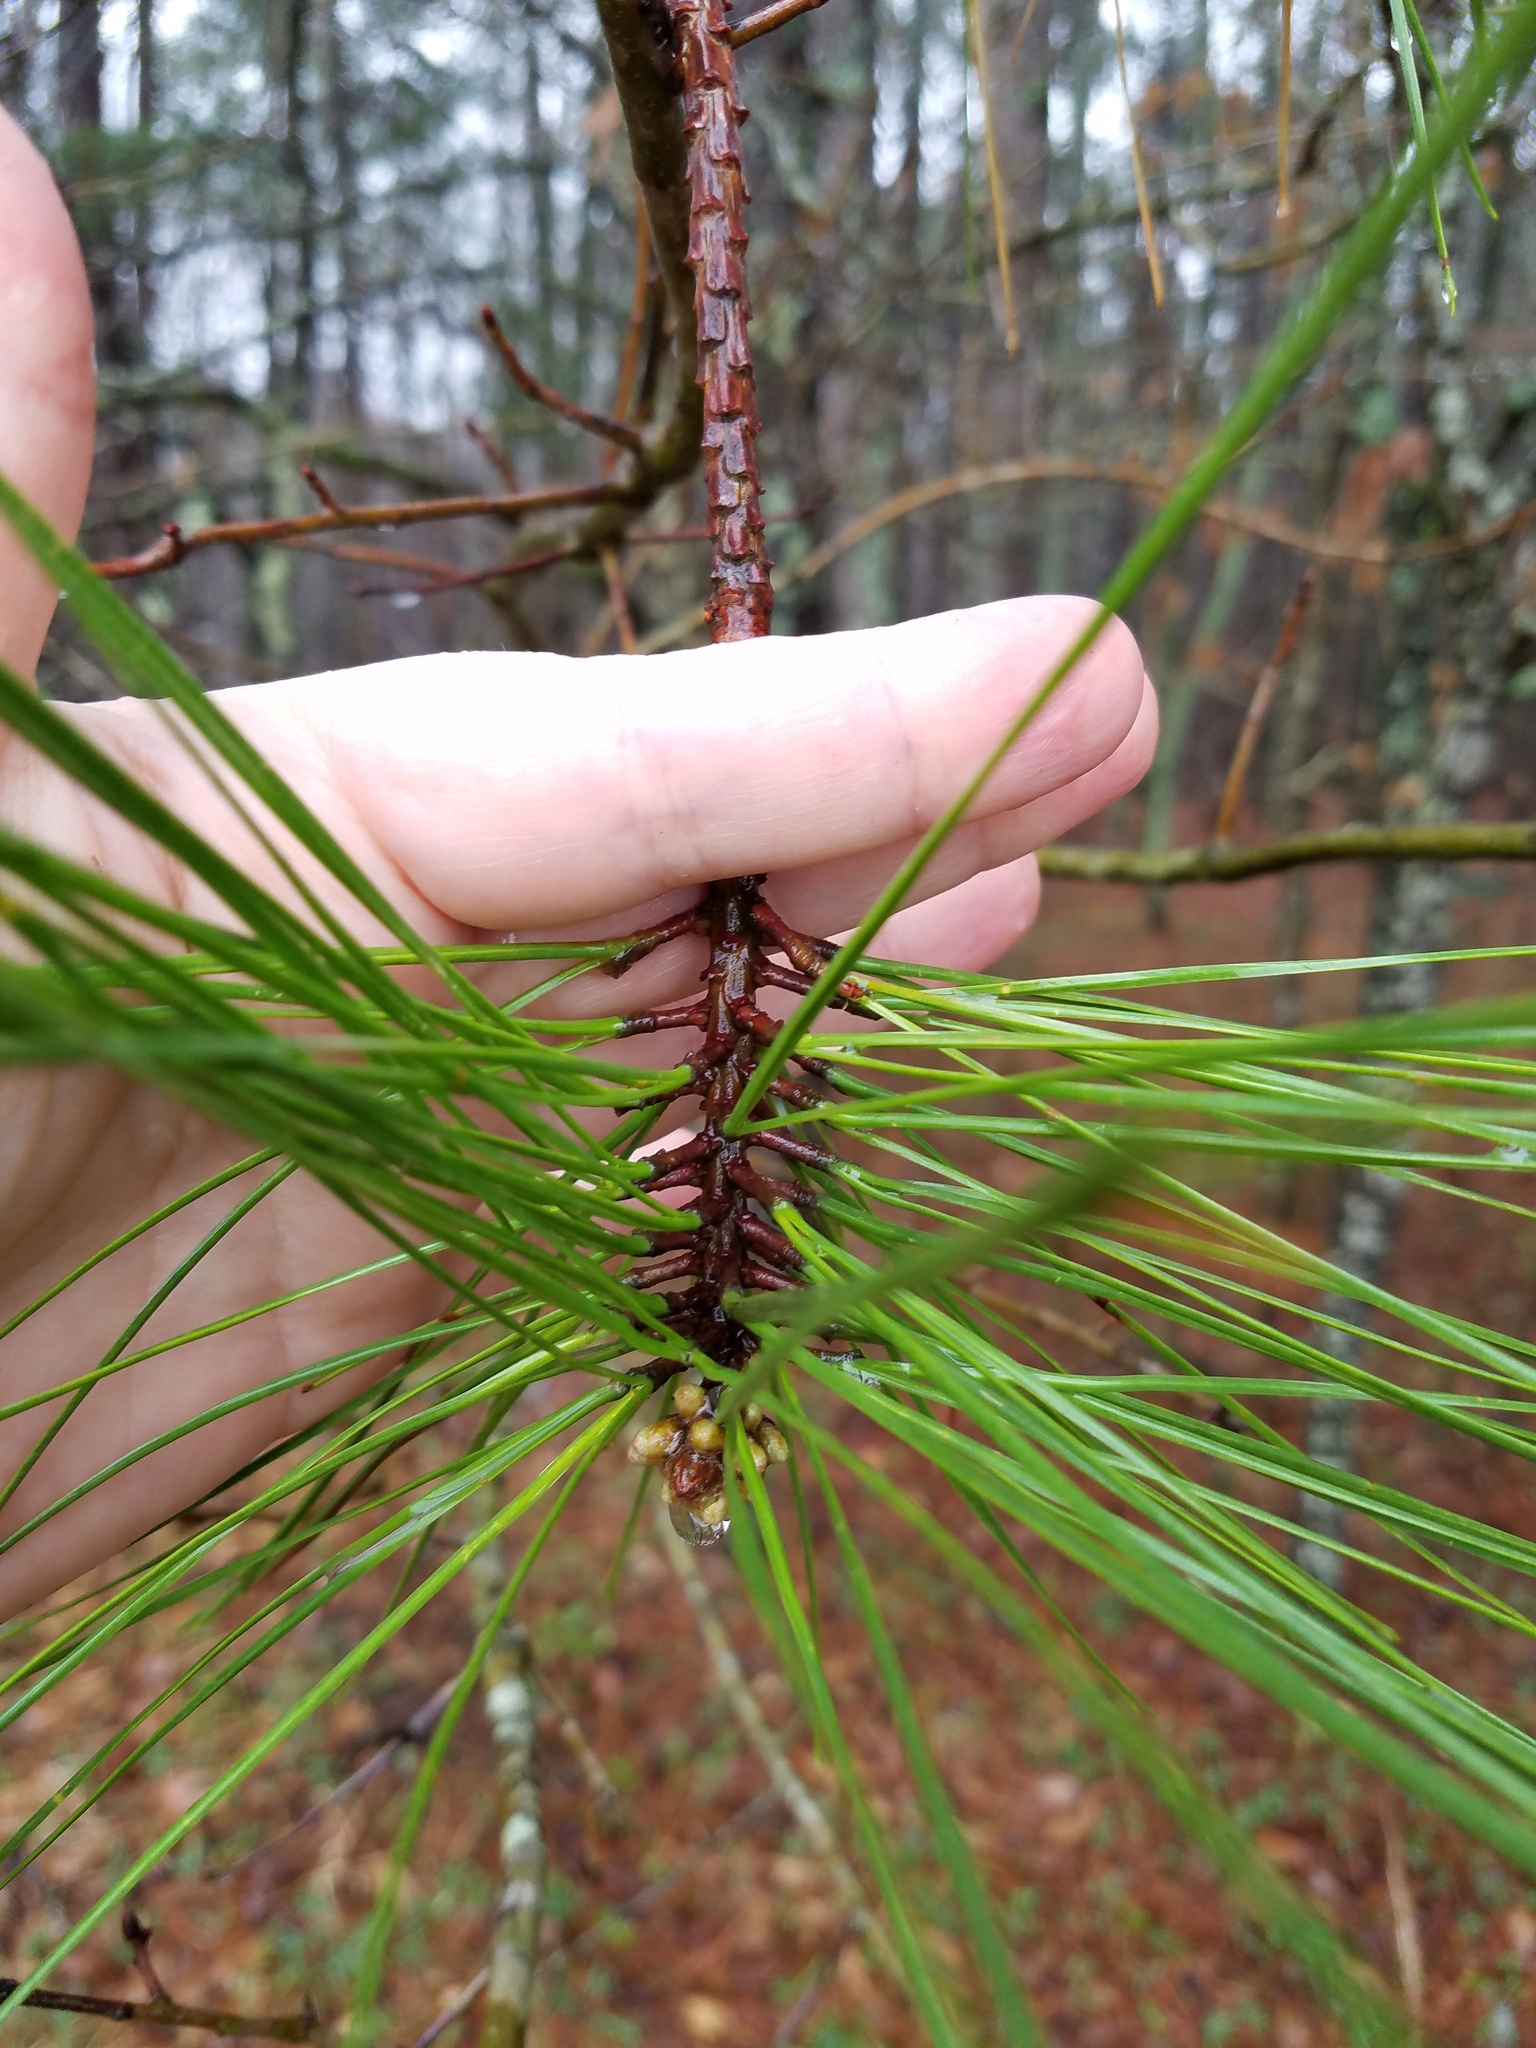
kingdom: Plantae
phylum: Tracheophyta
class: Pinopsida
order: Pinales
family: Pinaceae
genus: Pinus
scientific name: Pinus taeda
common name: Loblolly pine
